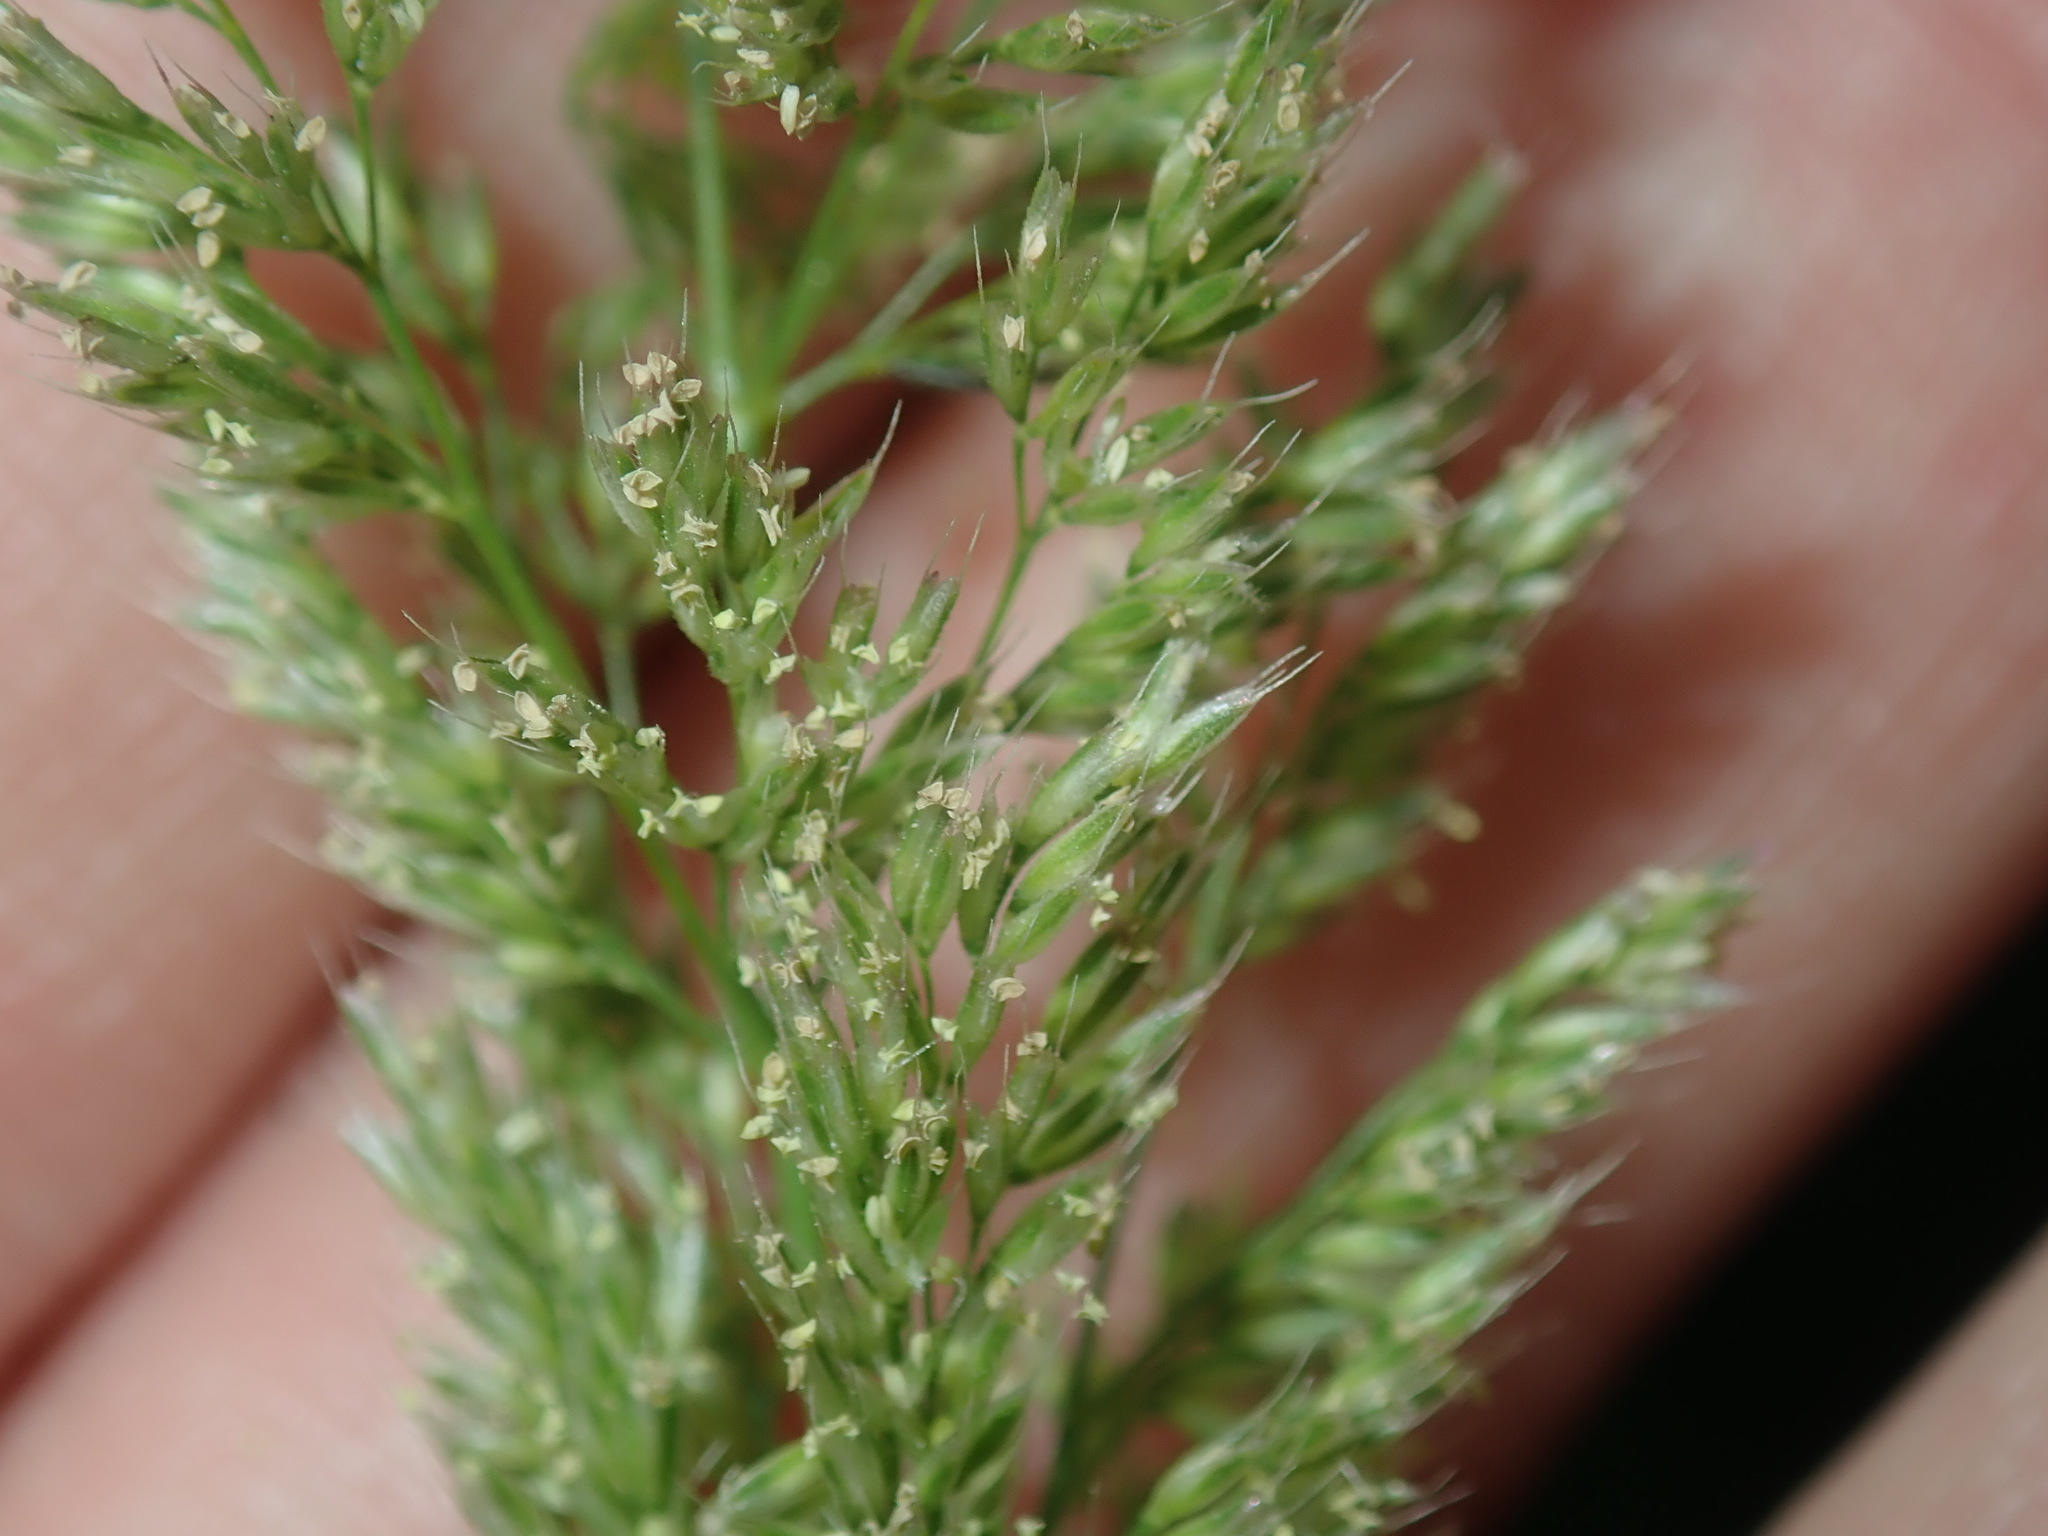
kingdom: Plantae
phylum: Tracheophyta
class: Liliopsida
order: Poales
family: Poaceae
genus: Agropogon
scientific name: Agropogon lutosus
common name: Coast agropogon
